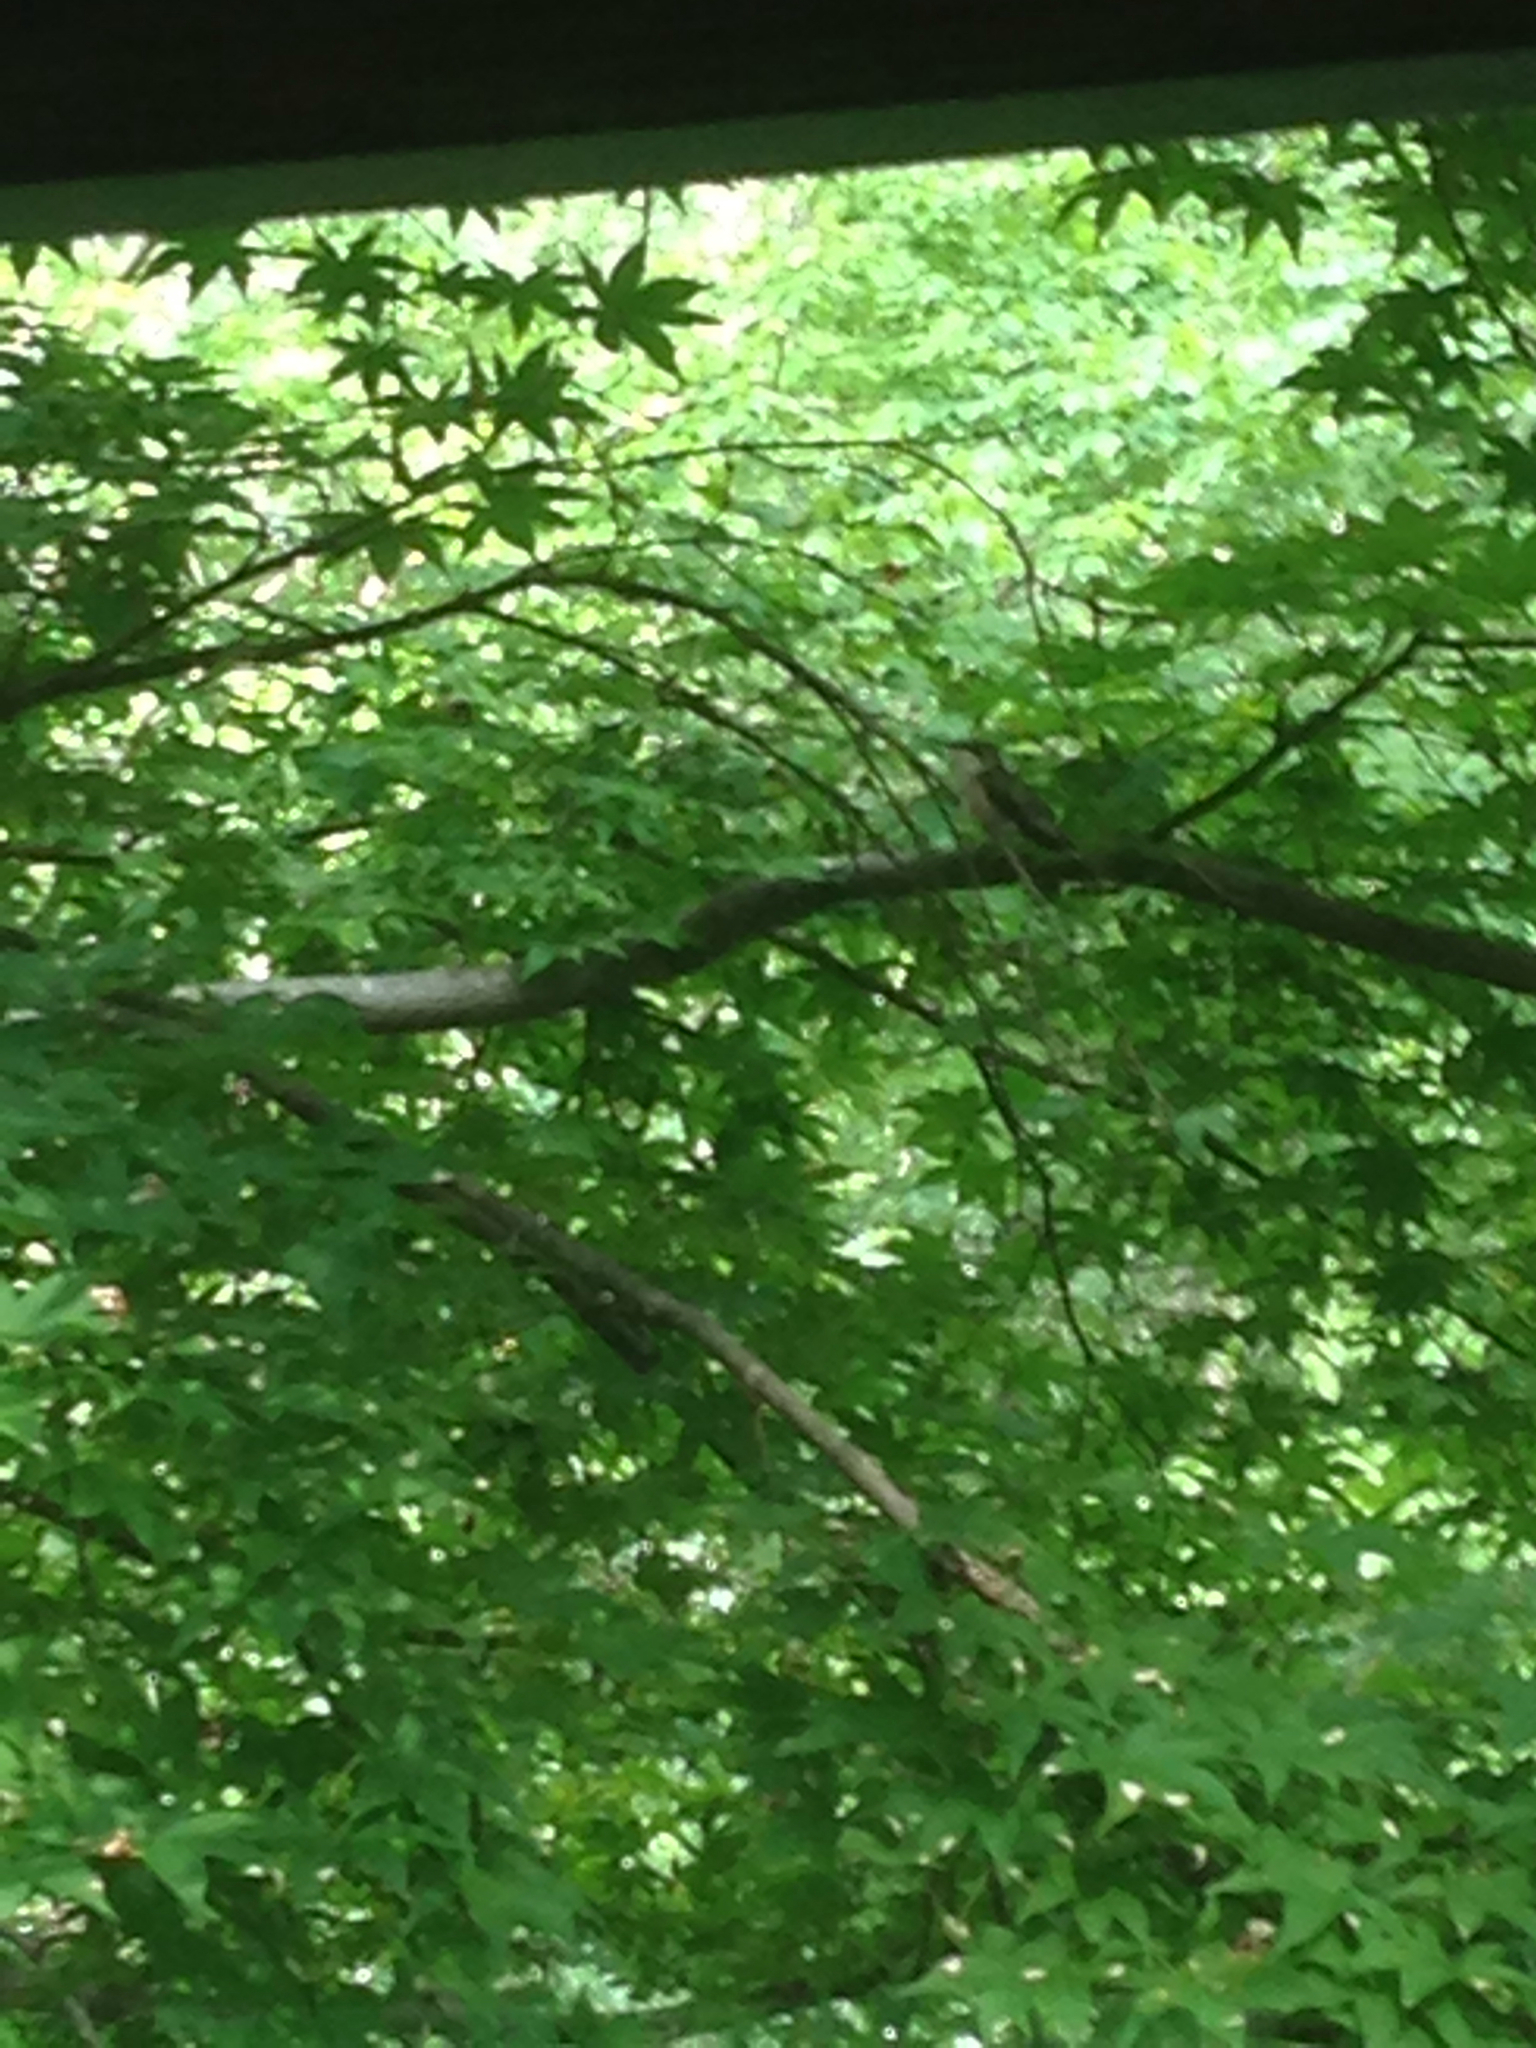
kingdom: Animalia
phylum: Chordata
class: Aves
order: Apodiformes
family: Trochilidae
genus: Archilochus
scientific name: Archilochus colubris
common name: Ruby-throated hummingbird
